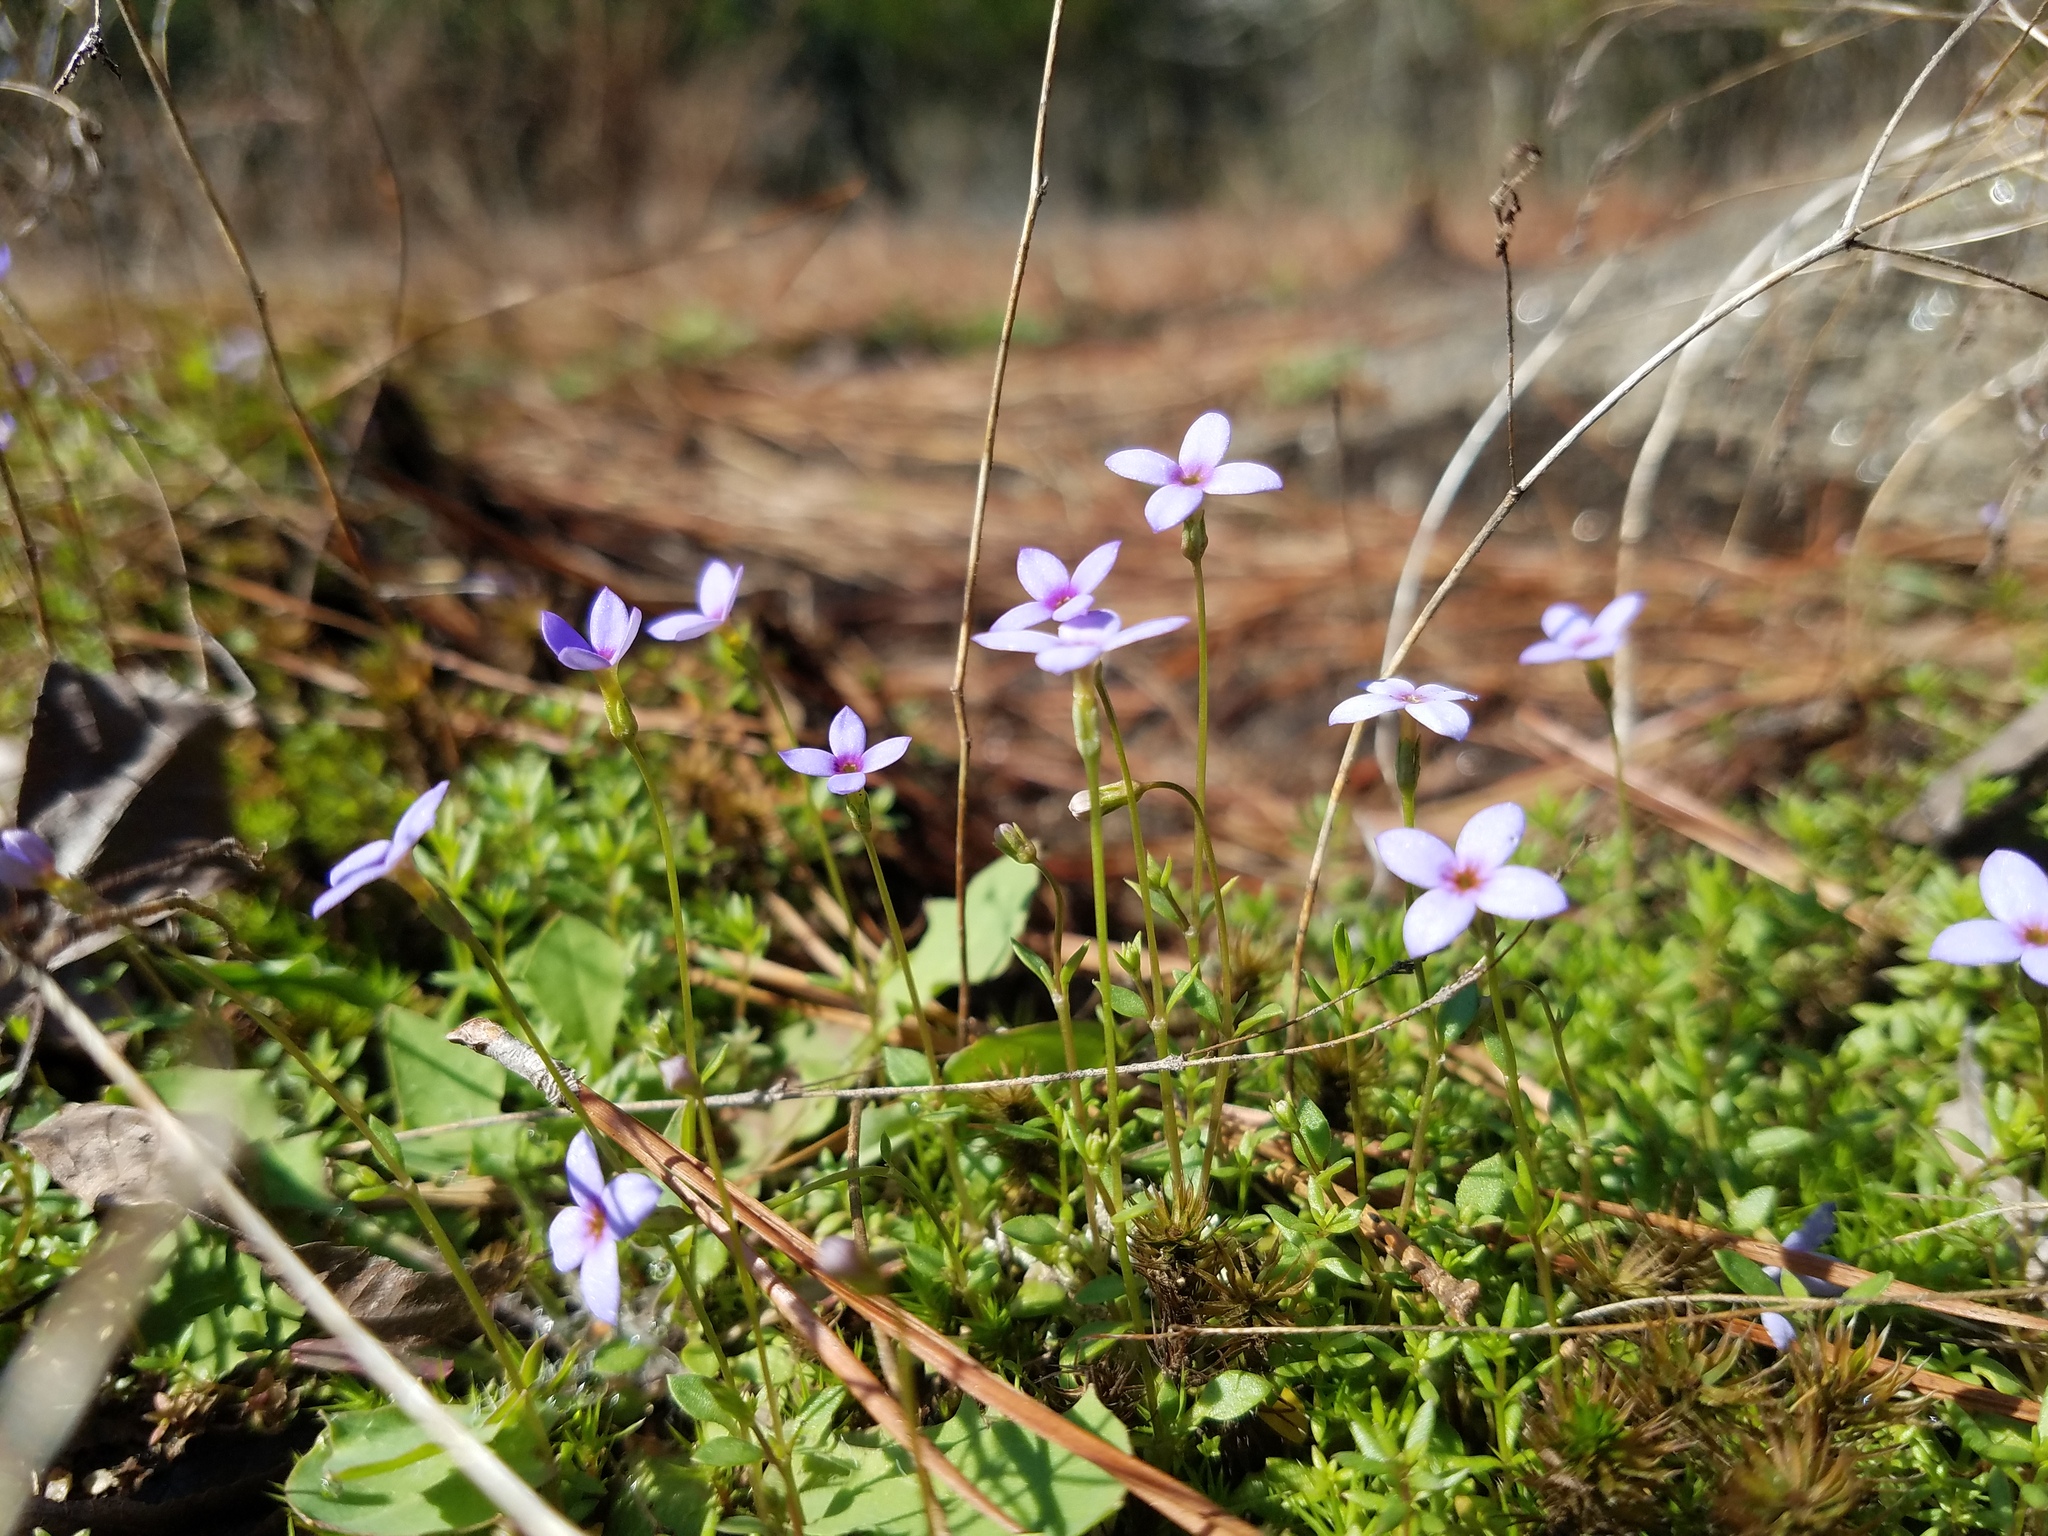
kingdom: Plantae
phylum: Tracheophyta
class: Magnoliopsida
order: Gentianales
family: Rubiaceae
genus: Houstonia
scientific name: Houstonia pusilla
